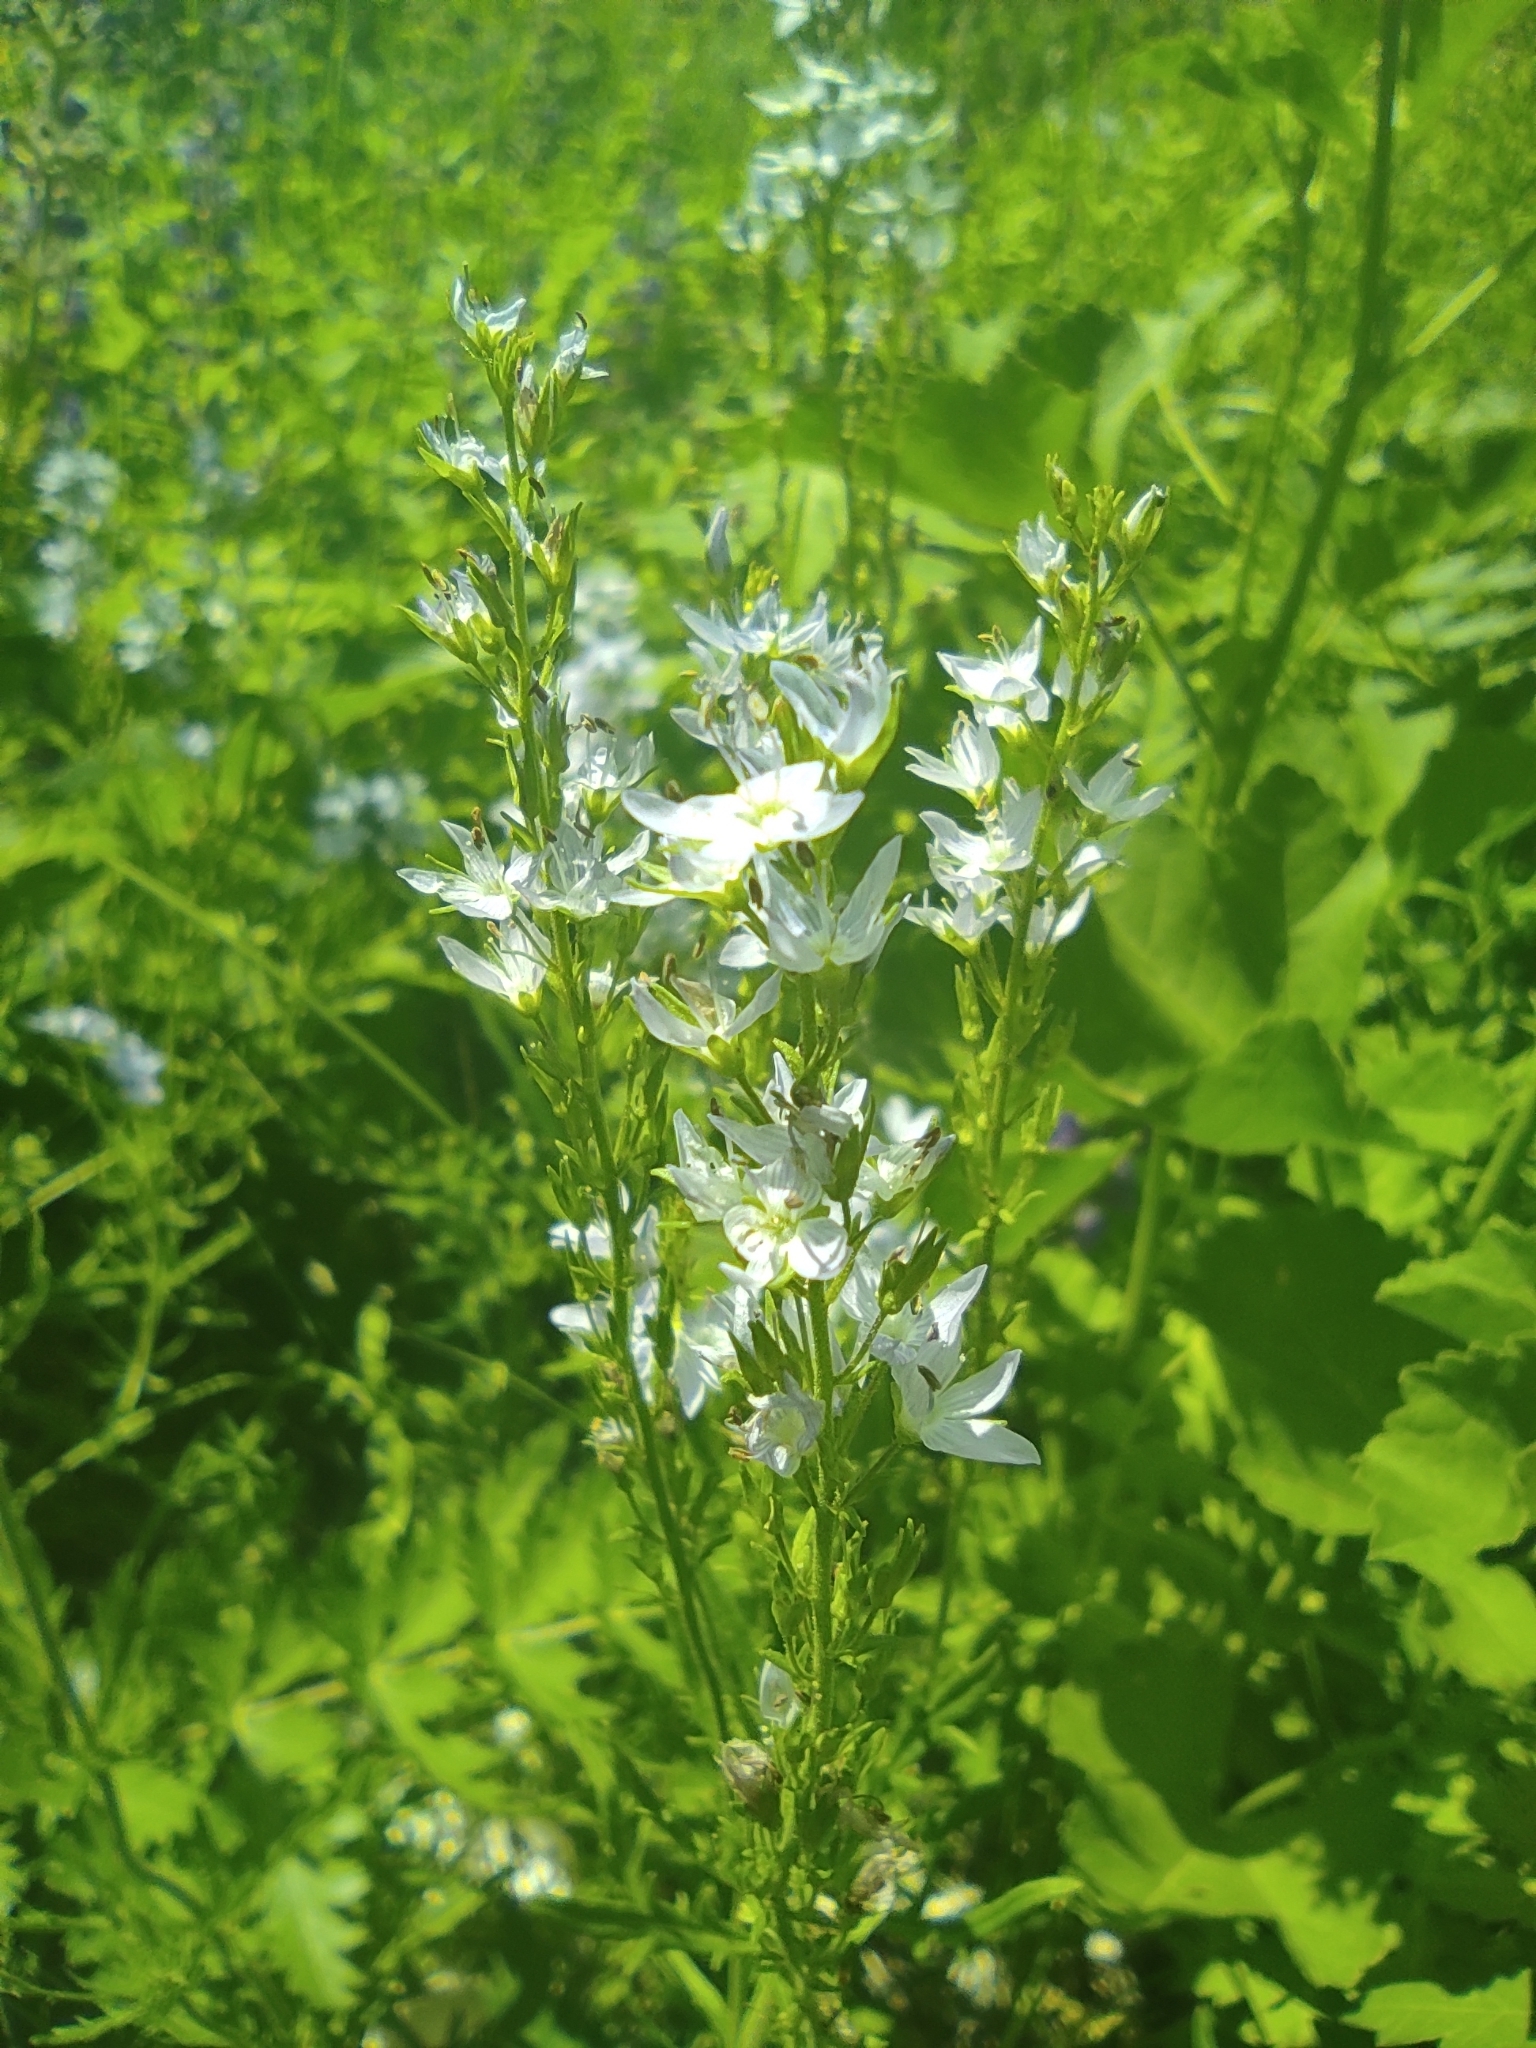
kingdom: Plantae
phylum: Tracheophyta
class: Magnoliopsida
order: Lamiales
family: Plantaginaceae
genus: Veronica
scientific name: Veronica austriaca
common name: Large speedwell
